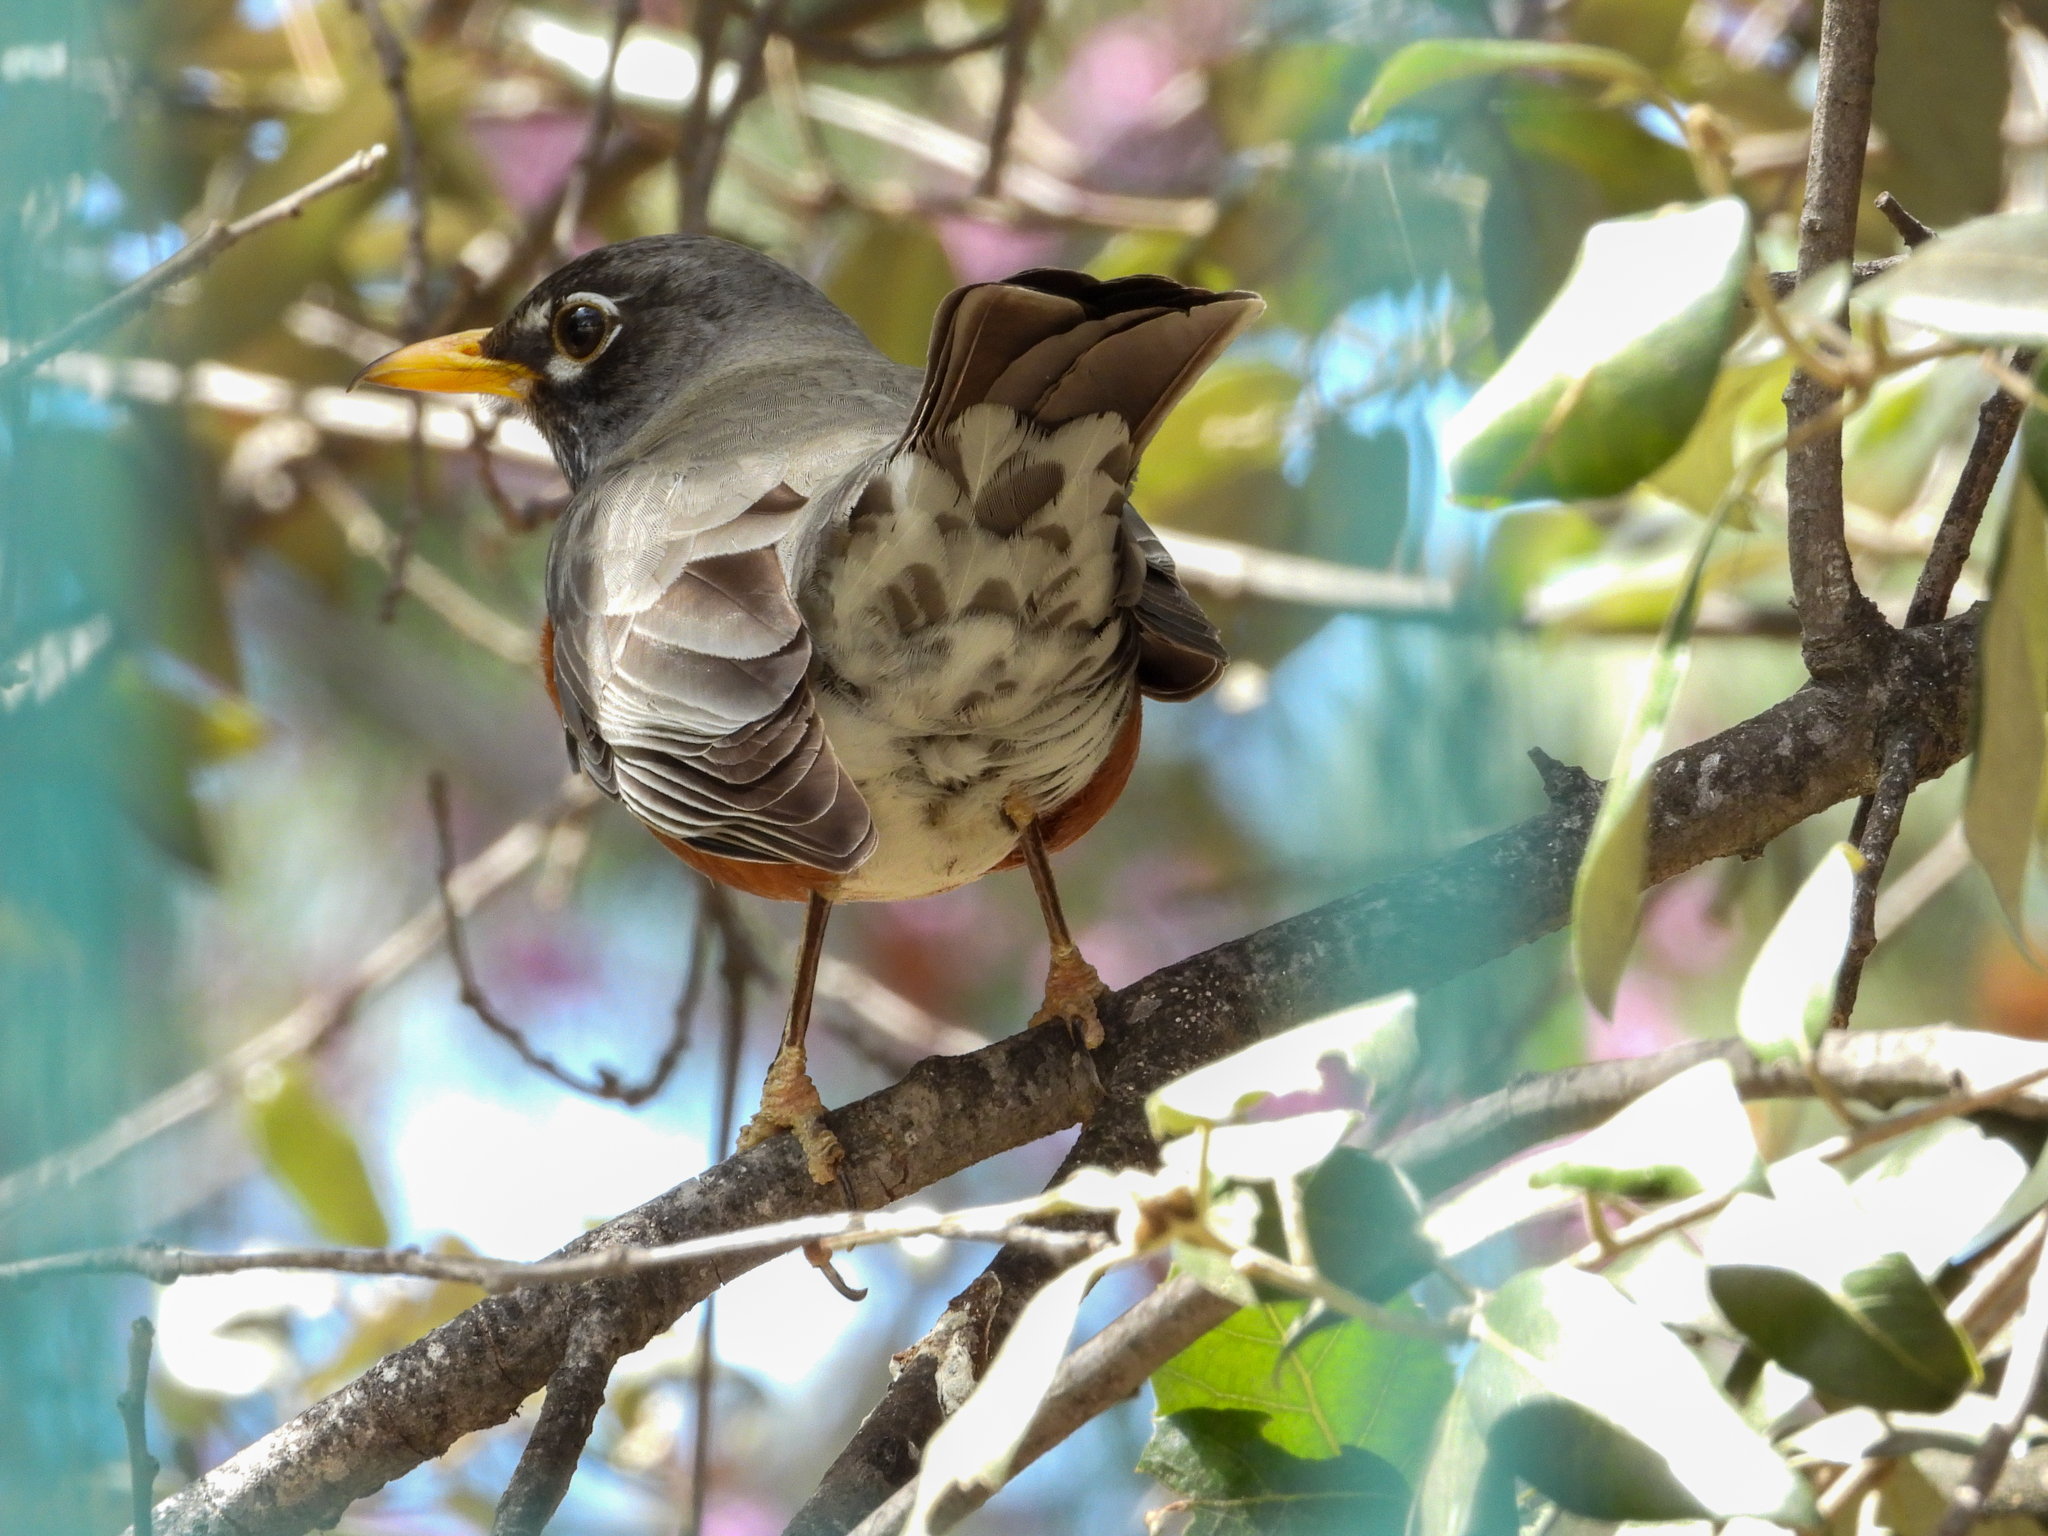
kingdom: Animalia
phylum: Chordata
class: Aves
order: Passeriformes
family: Turdidae
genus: Turdus
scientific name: Turdus migratorius
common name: American robin
